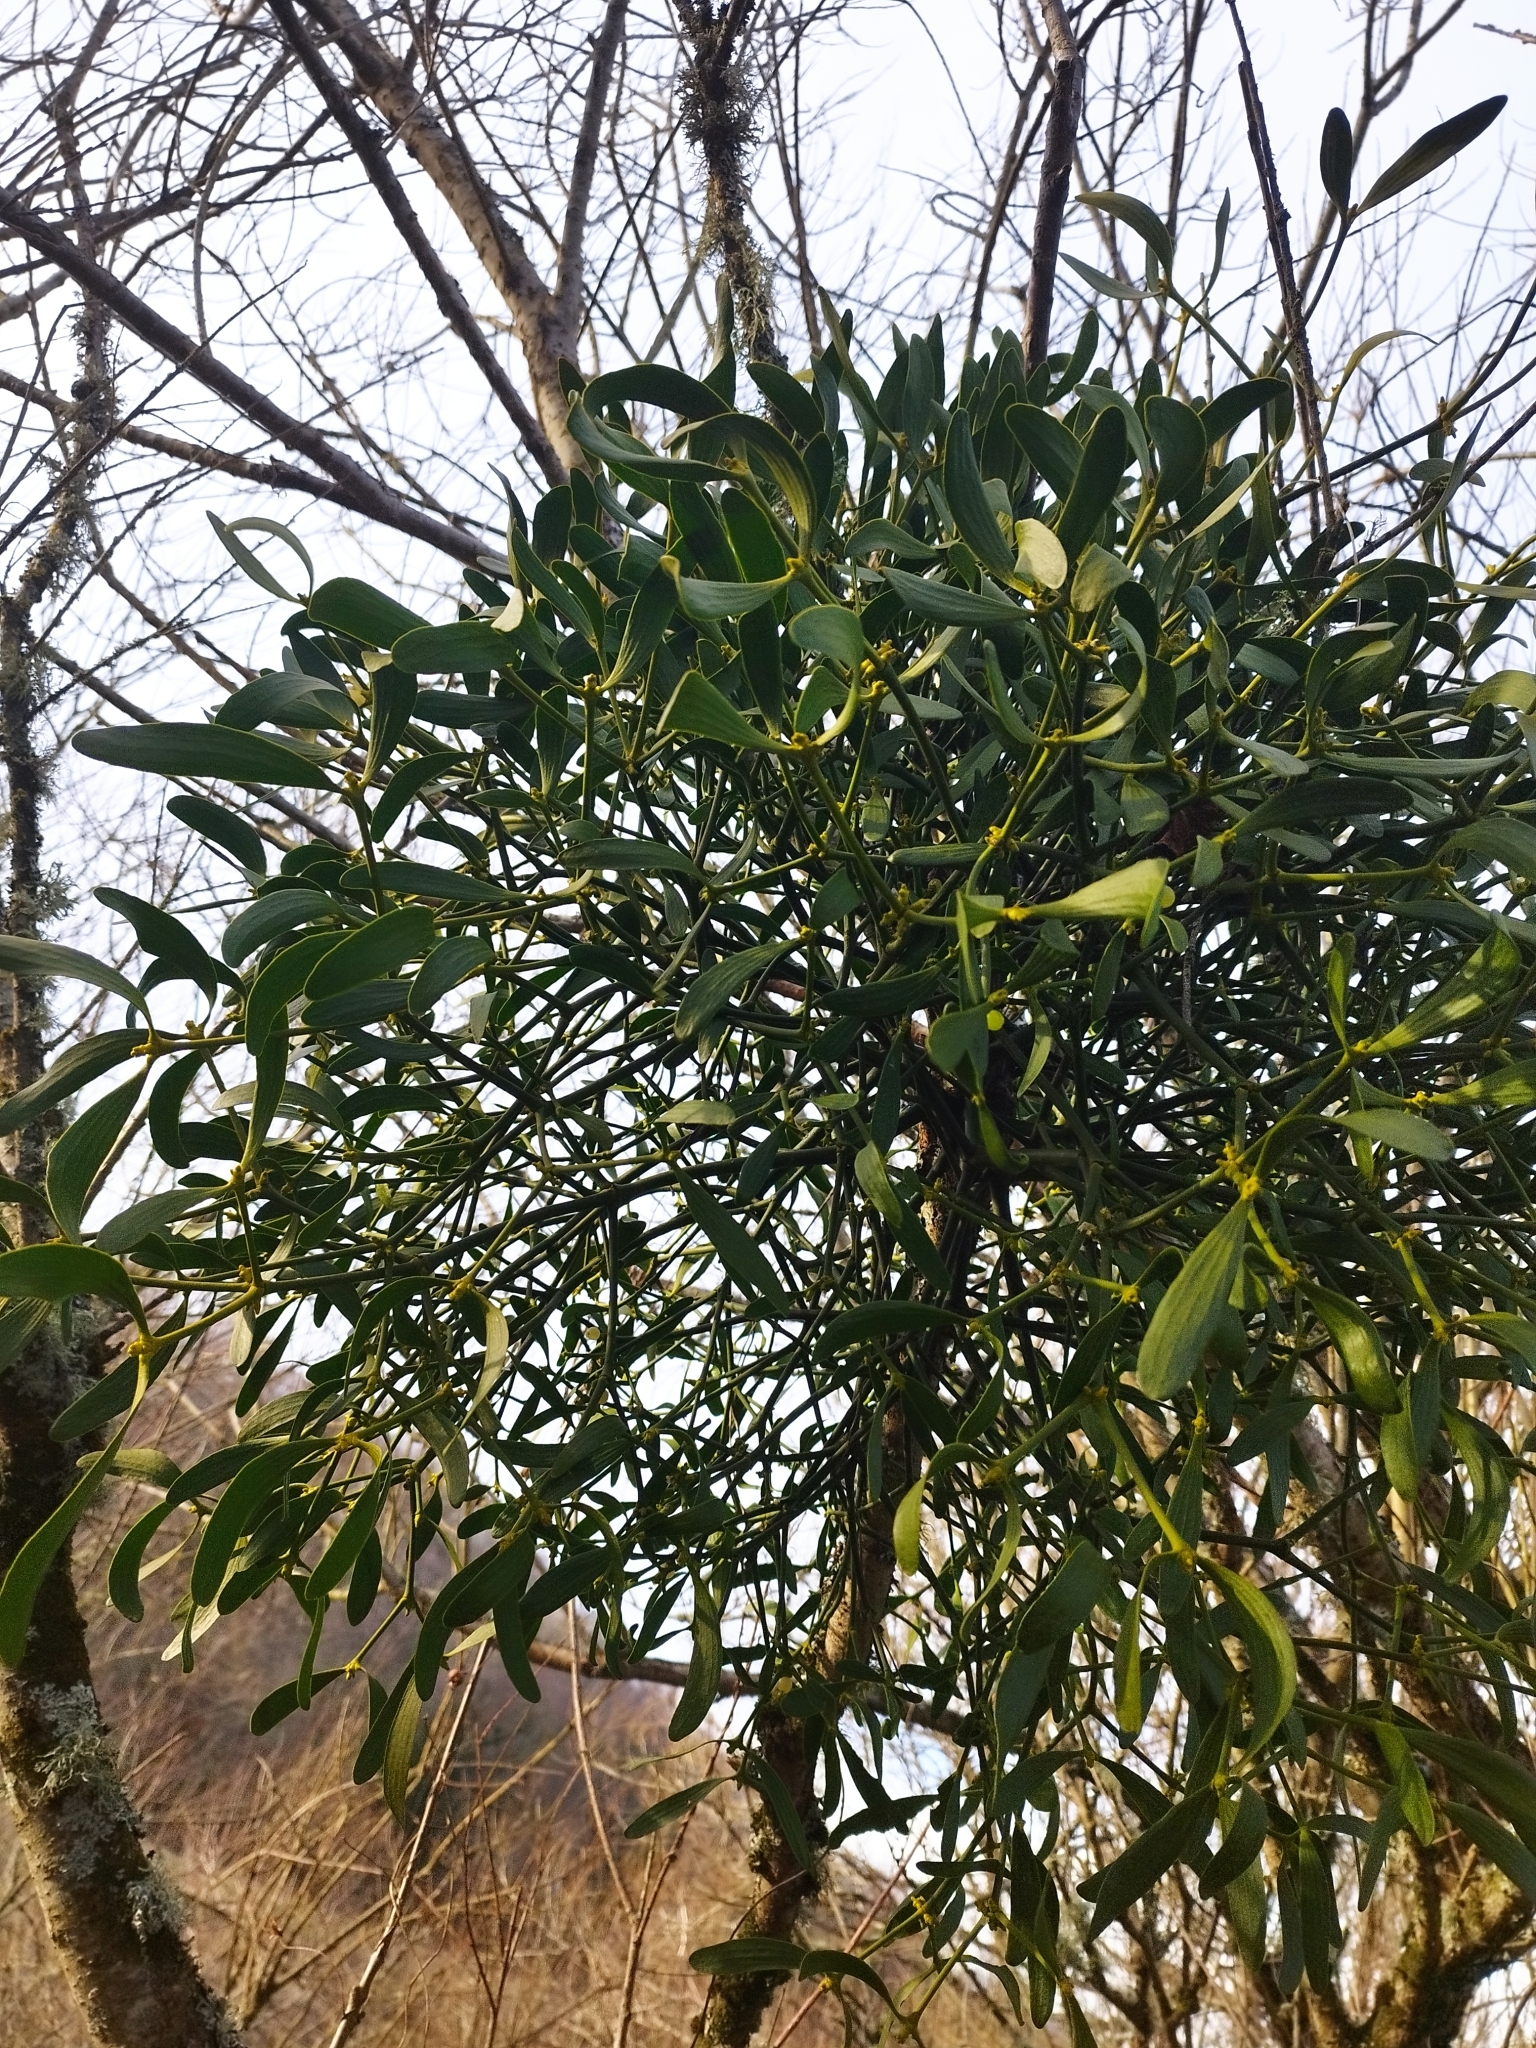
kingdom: Plantae
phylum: Tracheophyta
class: Magnoliopsida
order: Santalales
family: Viscaceae
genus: Viscum
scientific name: Viscum album
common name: Mistletoe
